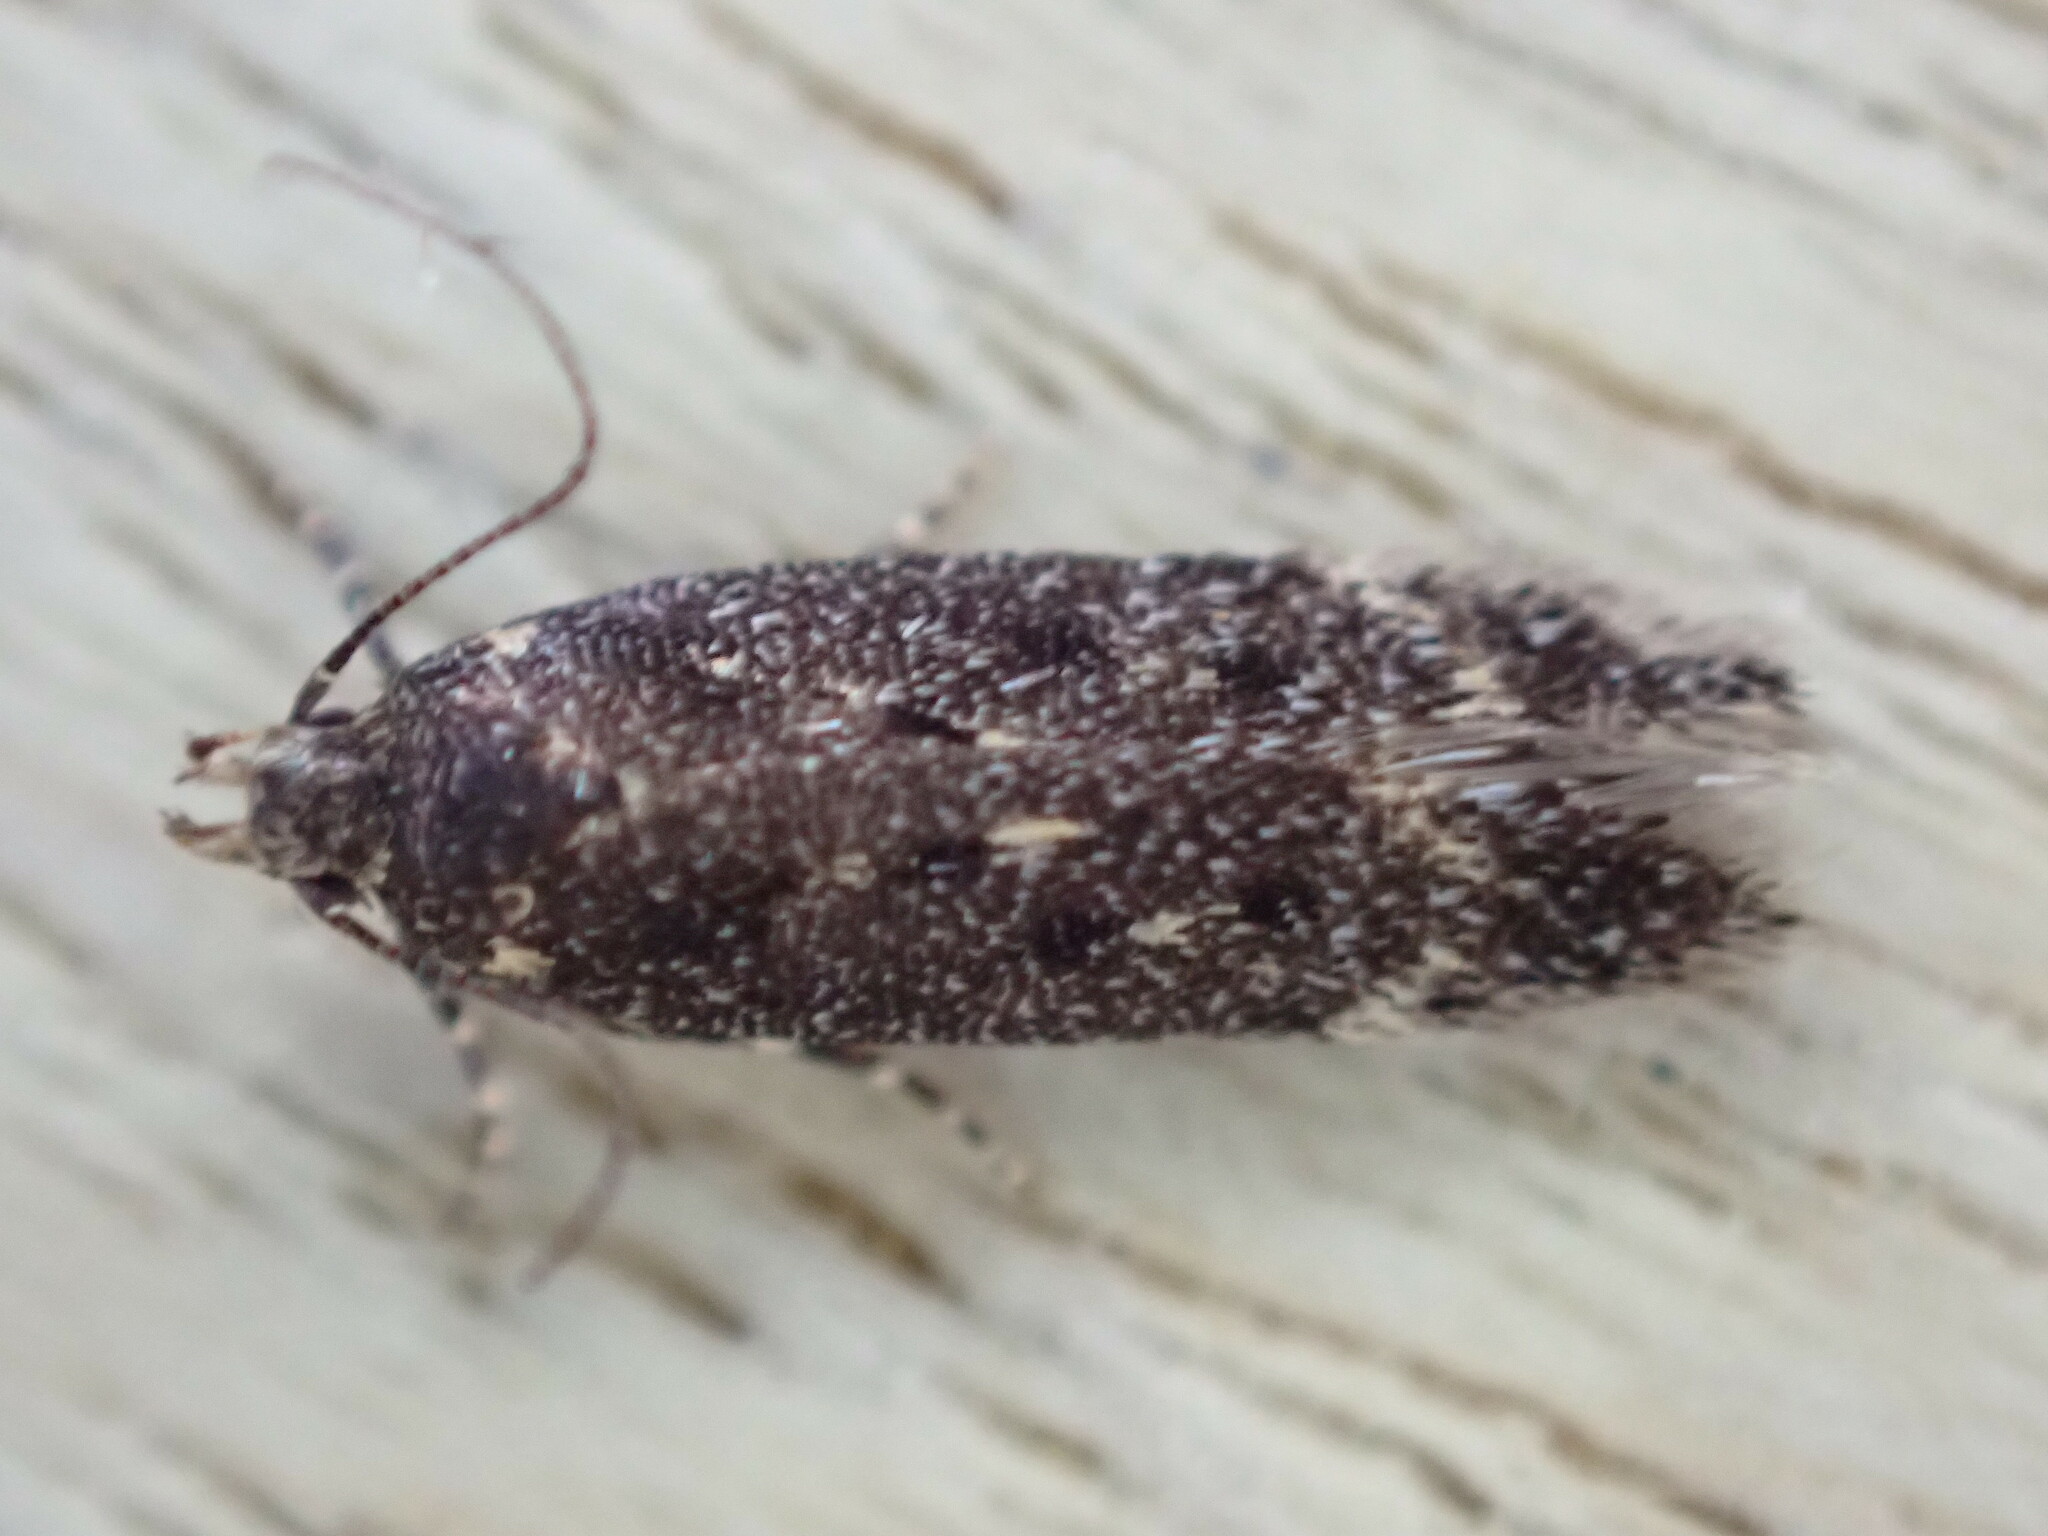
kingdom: Animalia
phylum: Arthropoda
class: Insecta
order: Lepidoptera
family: Gelechiidae
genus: Bryotropha
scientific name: Bryotropha affinis
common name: Dark groundling
